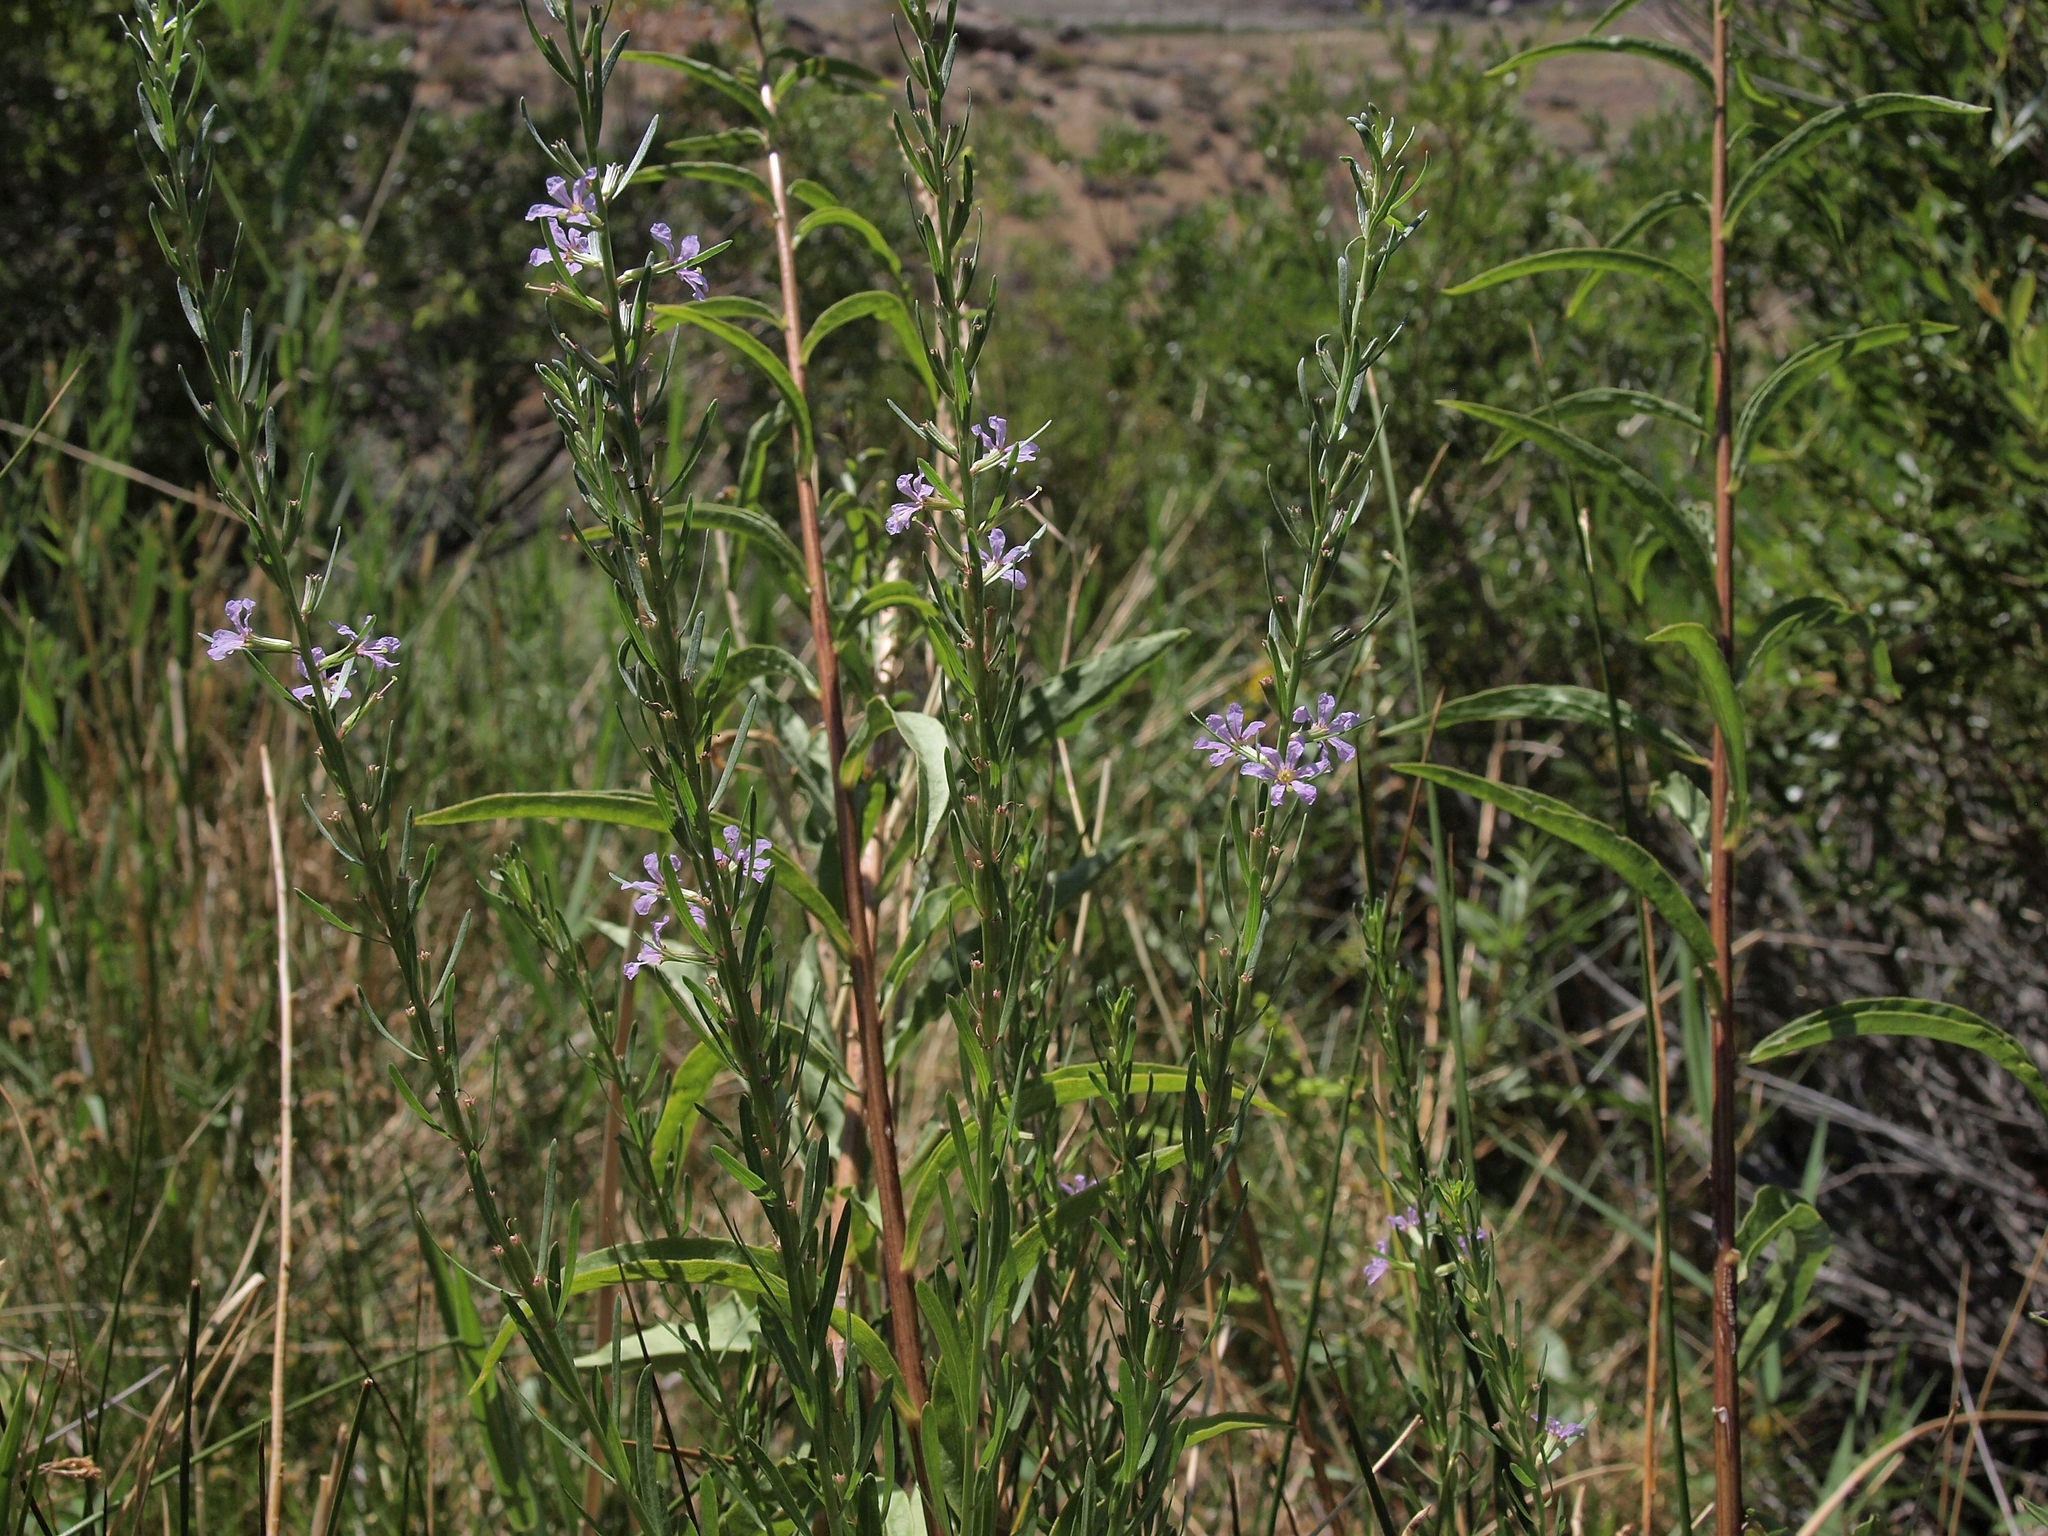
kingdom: Plantae
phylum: Tracheophyta
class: Magnoliopsida
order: Myrtales
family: Lythraceae
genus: Lythrum
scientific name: Lythrum californicum
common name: California loosestrife
